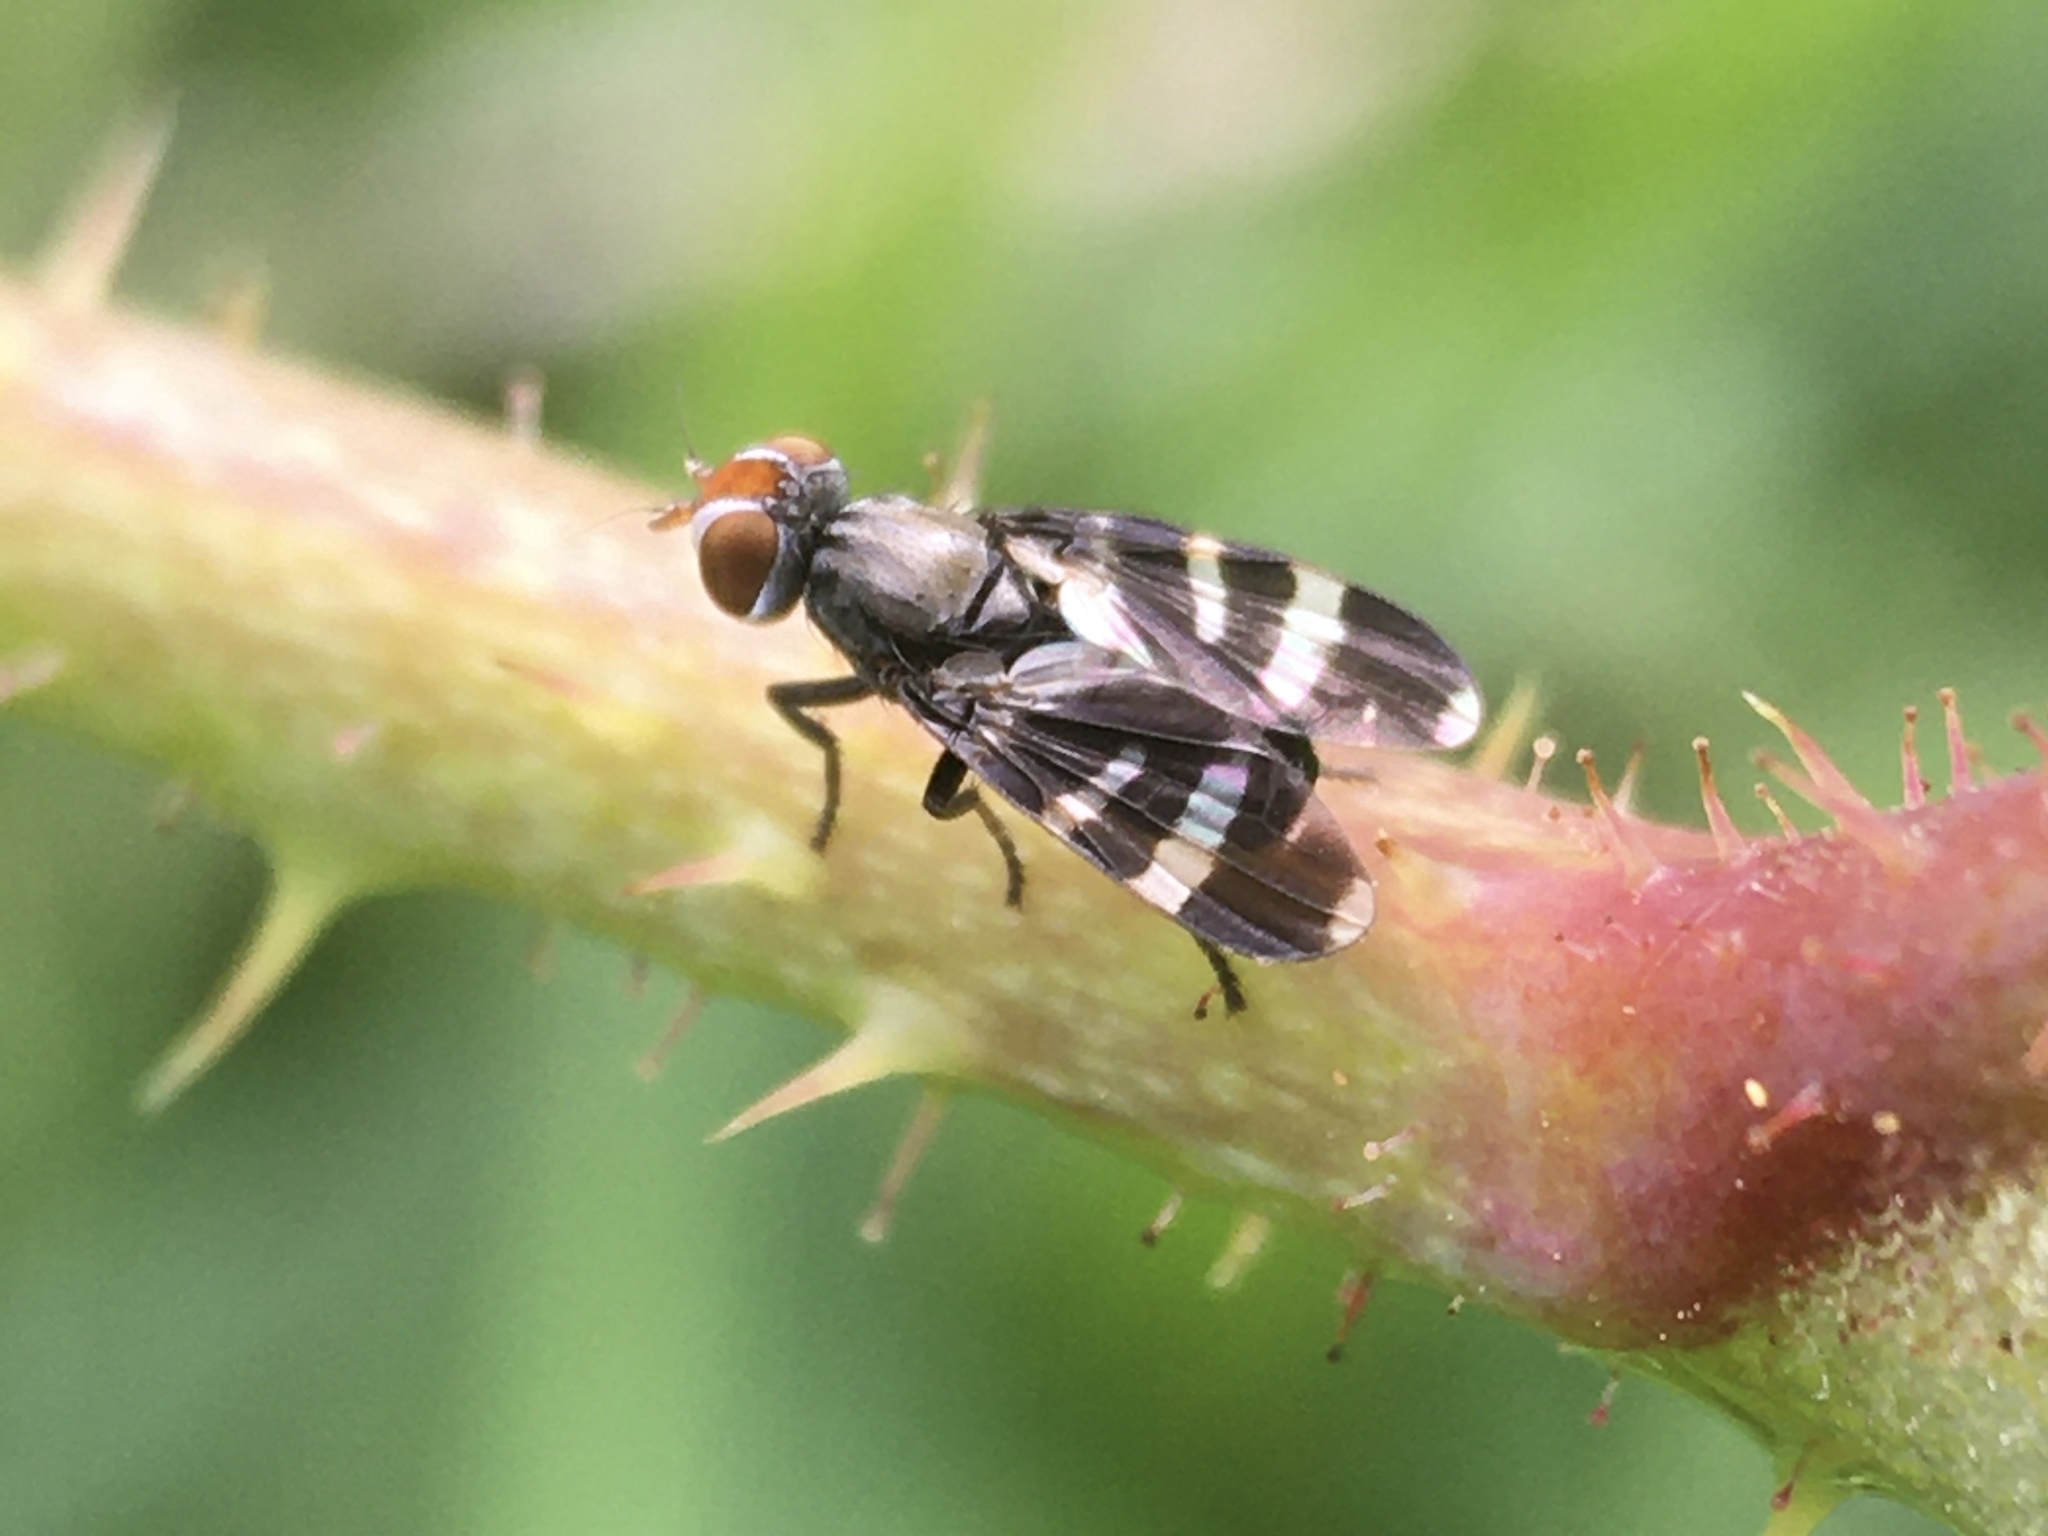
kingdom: Animalia
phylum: Arthropoda
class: Insecta
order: Diptera
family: Ulidiidae
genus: Herina
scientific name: Herina frondescentiae
